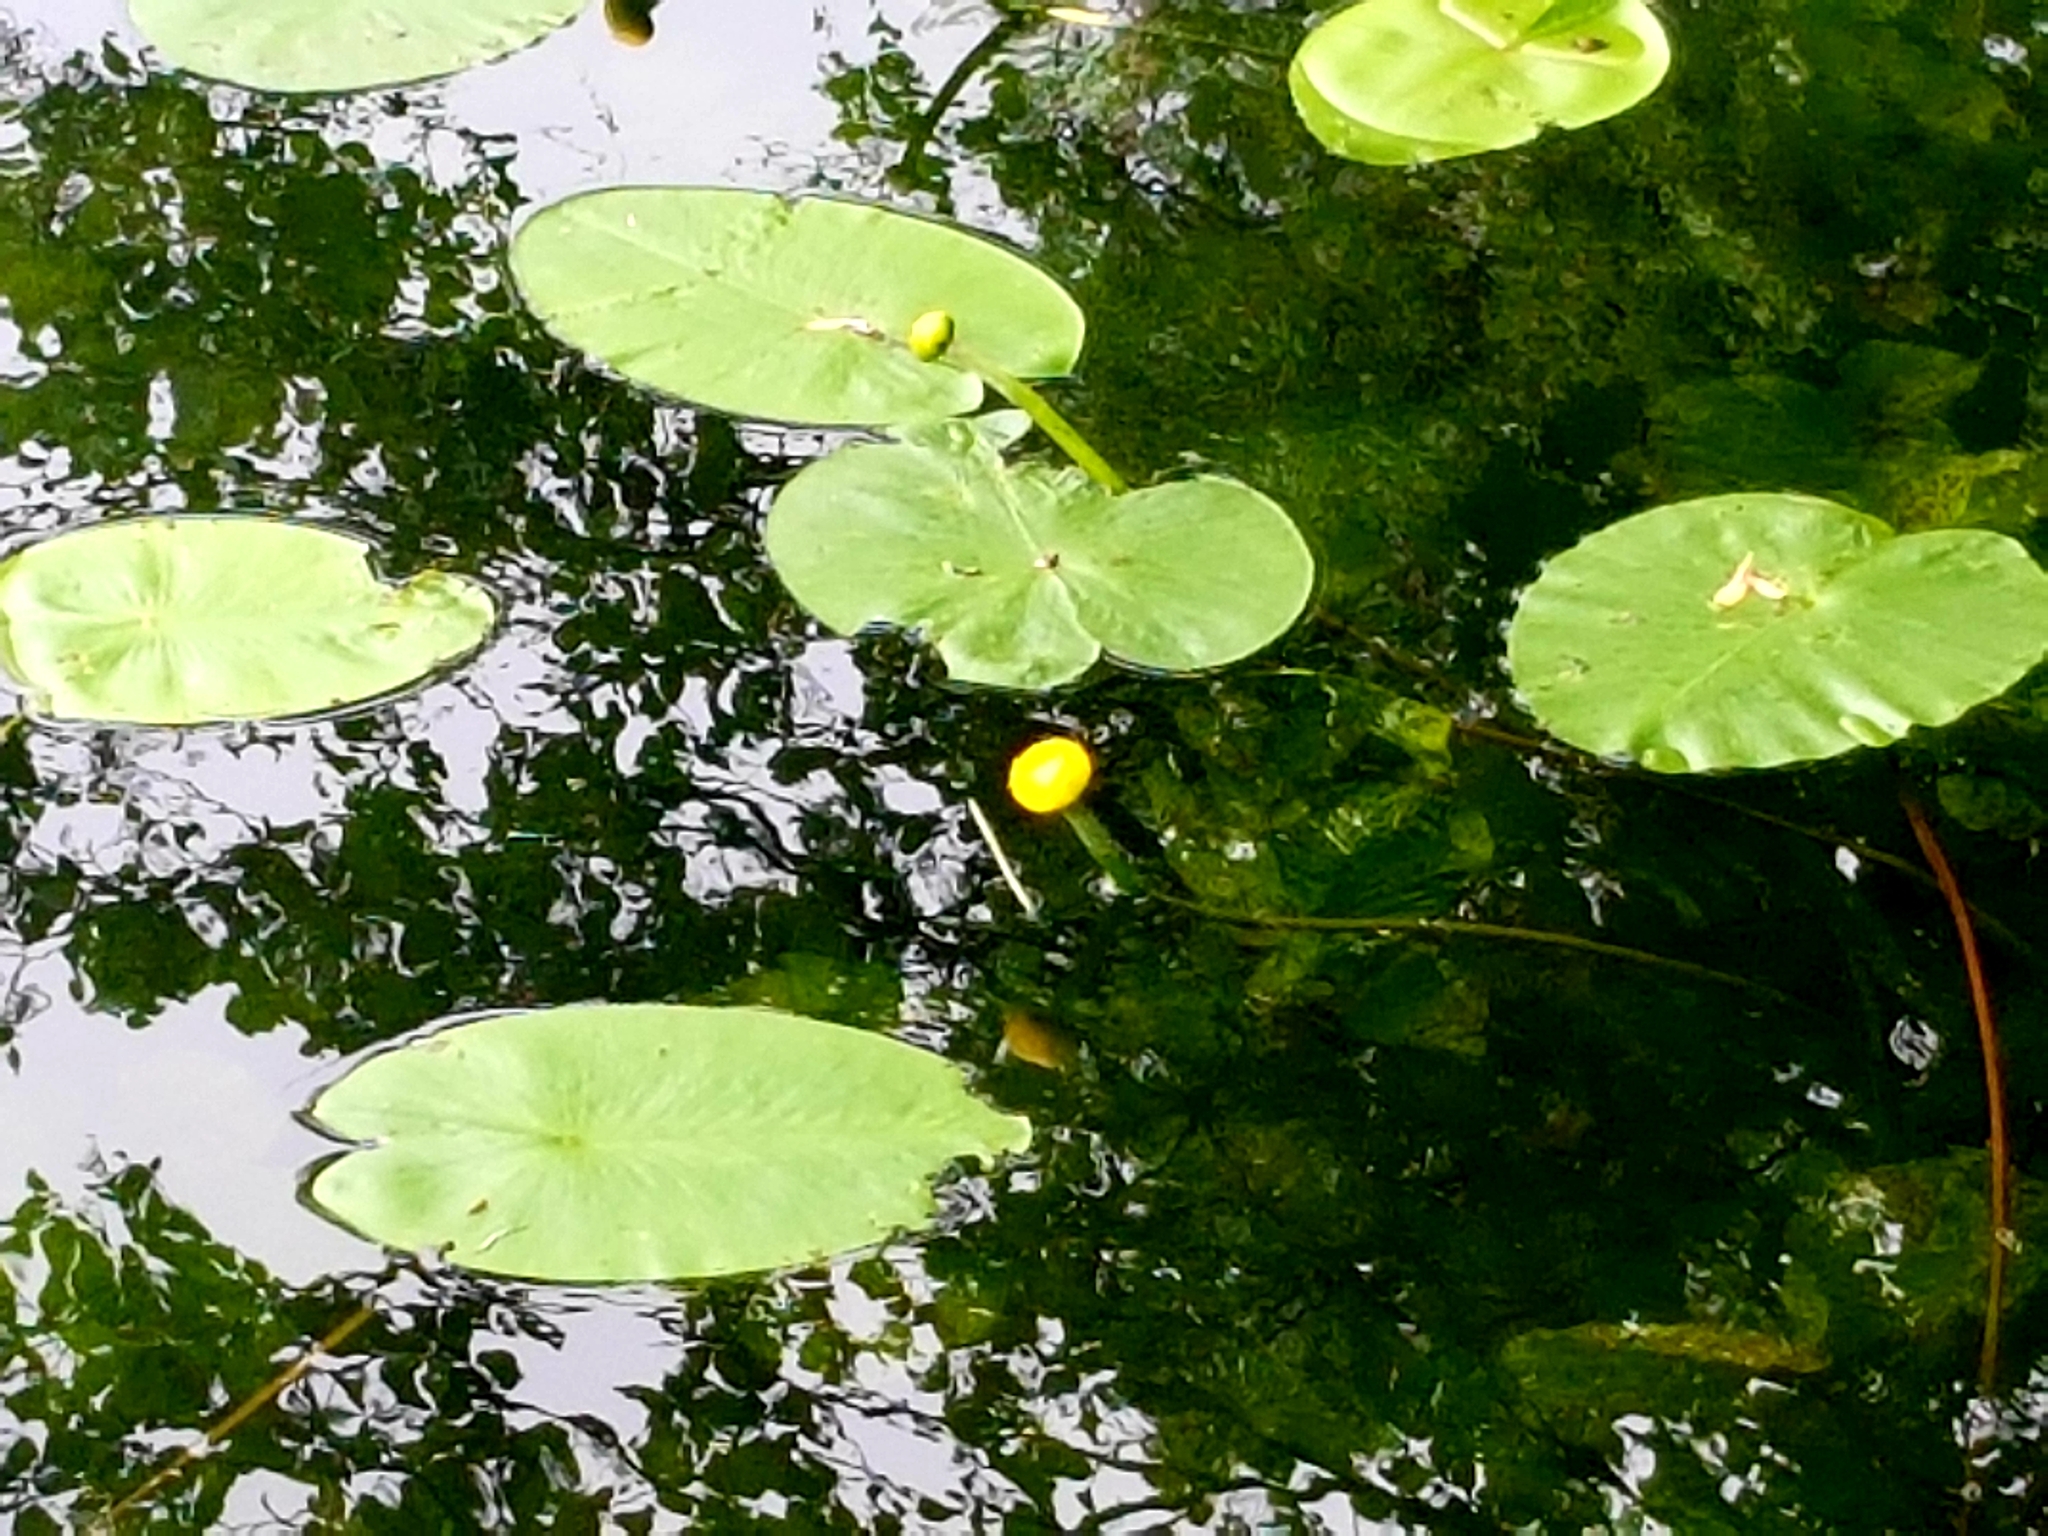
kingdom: Plantae
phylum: Tracheophyta
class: Magnoliopsida
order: Nymphaeales
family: Nymphaeaceae
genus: Nuphar
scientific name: Nuphar lutea
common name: Yellow water-lily
